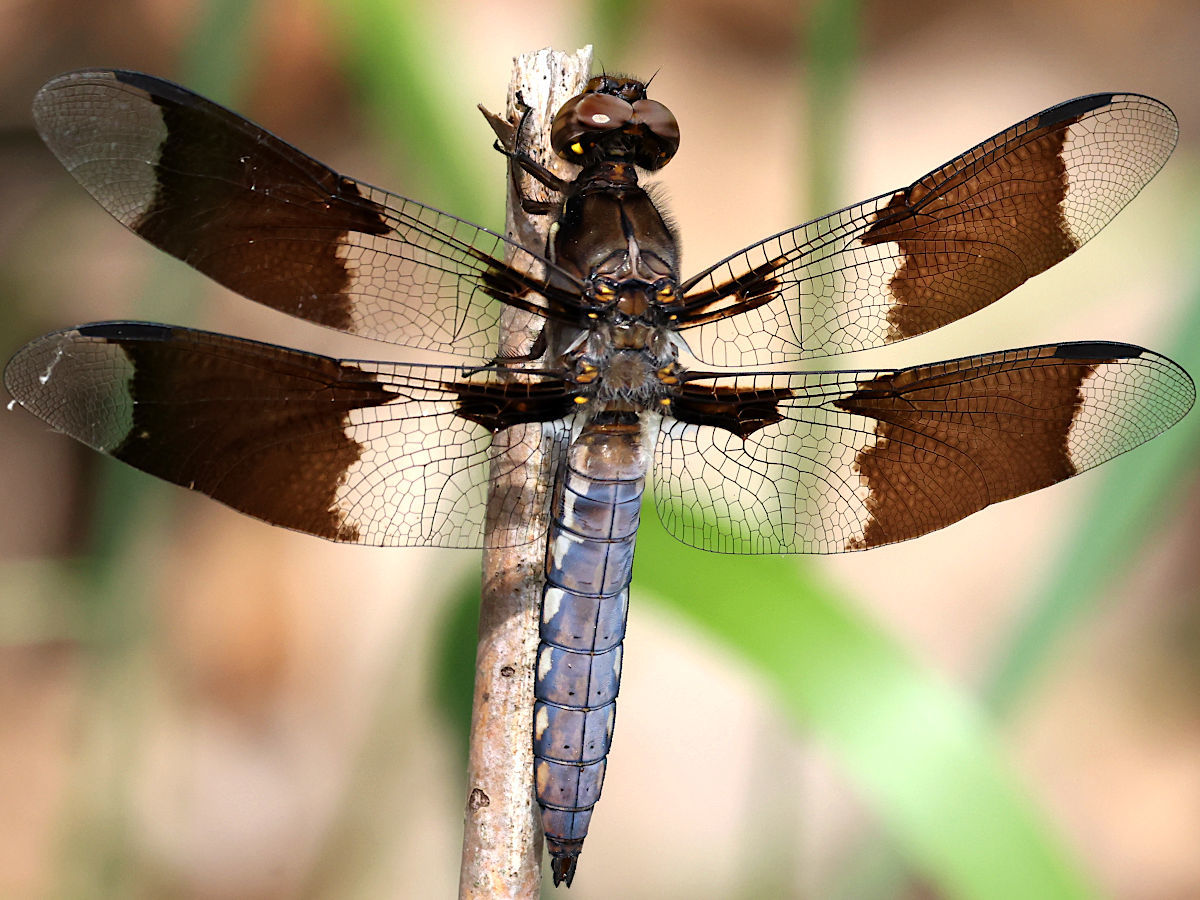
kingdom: Animalia
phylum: Arthropoda
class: Insecta
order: Odonata
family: Libellulidae
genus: Plathemis
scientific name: Plathemis lydia
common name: Common whitetail
